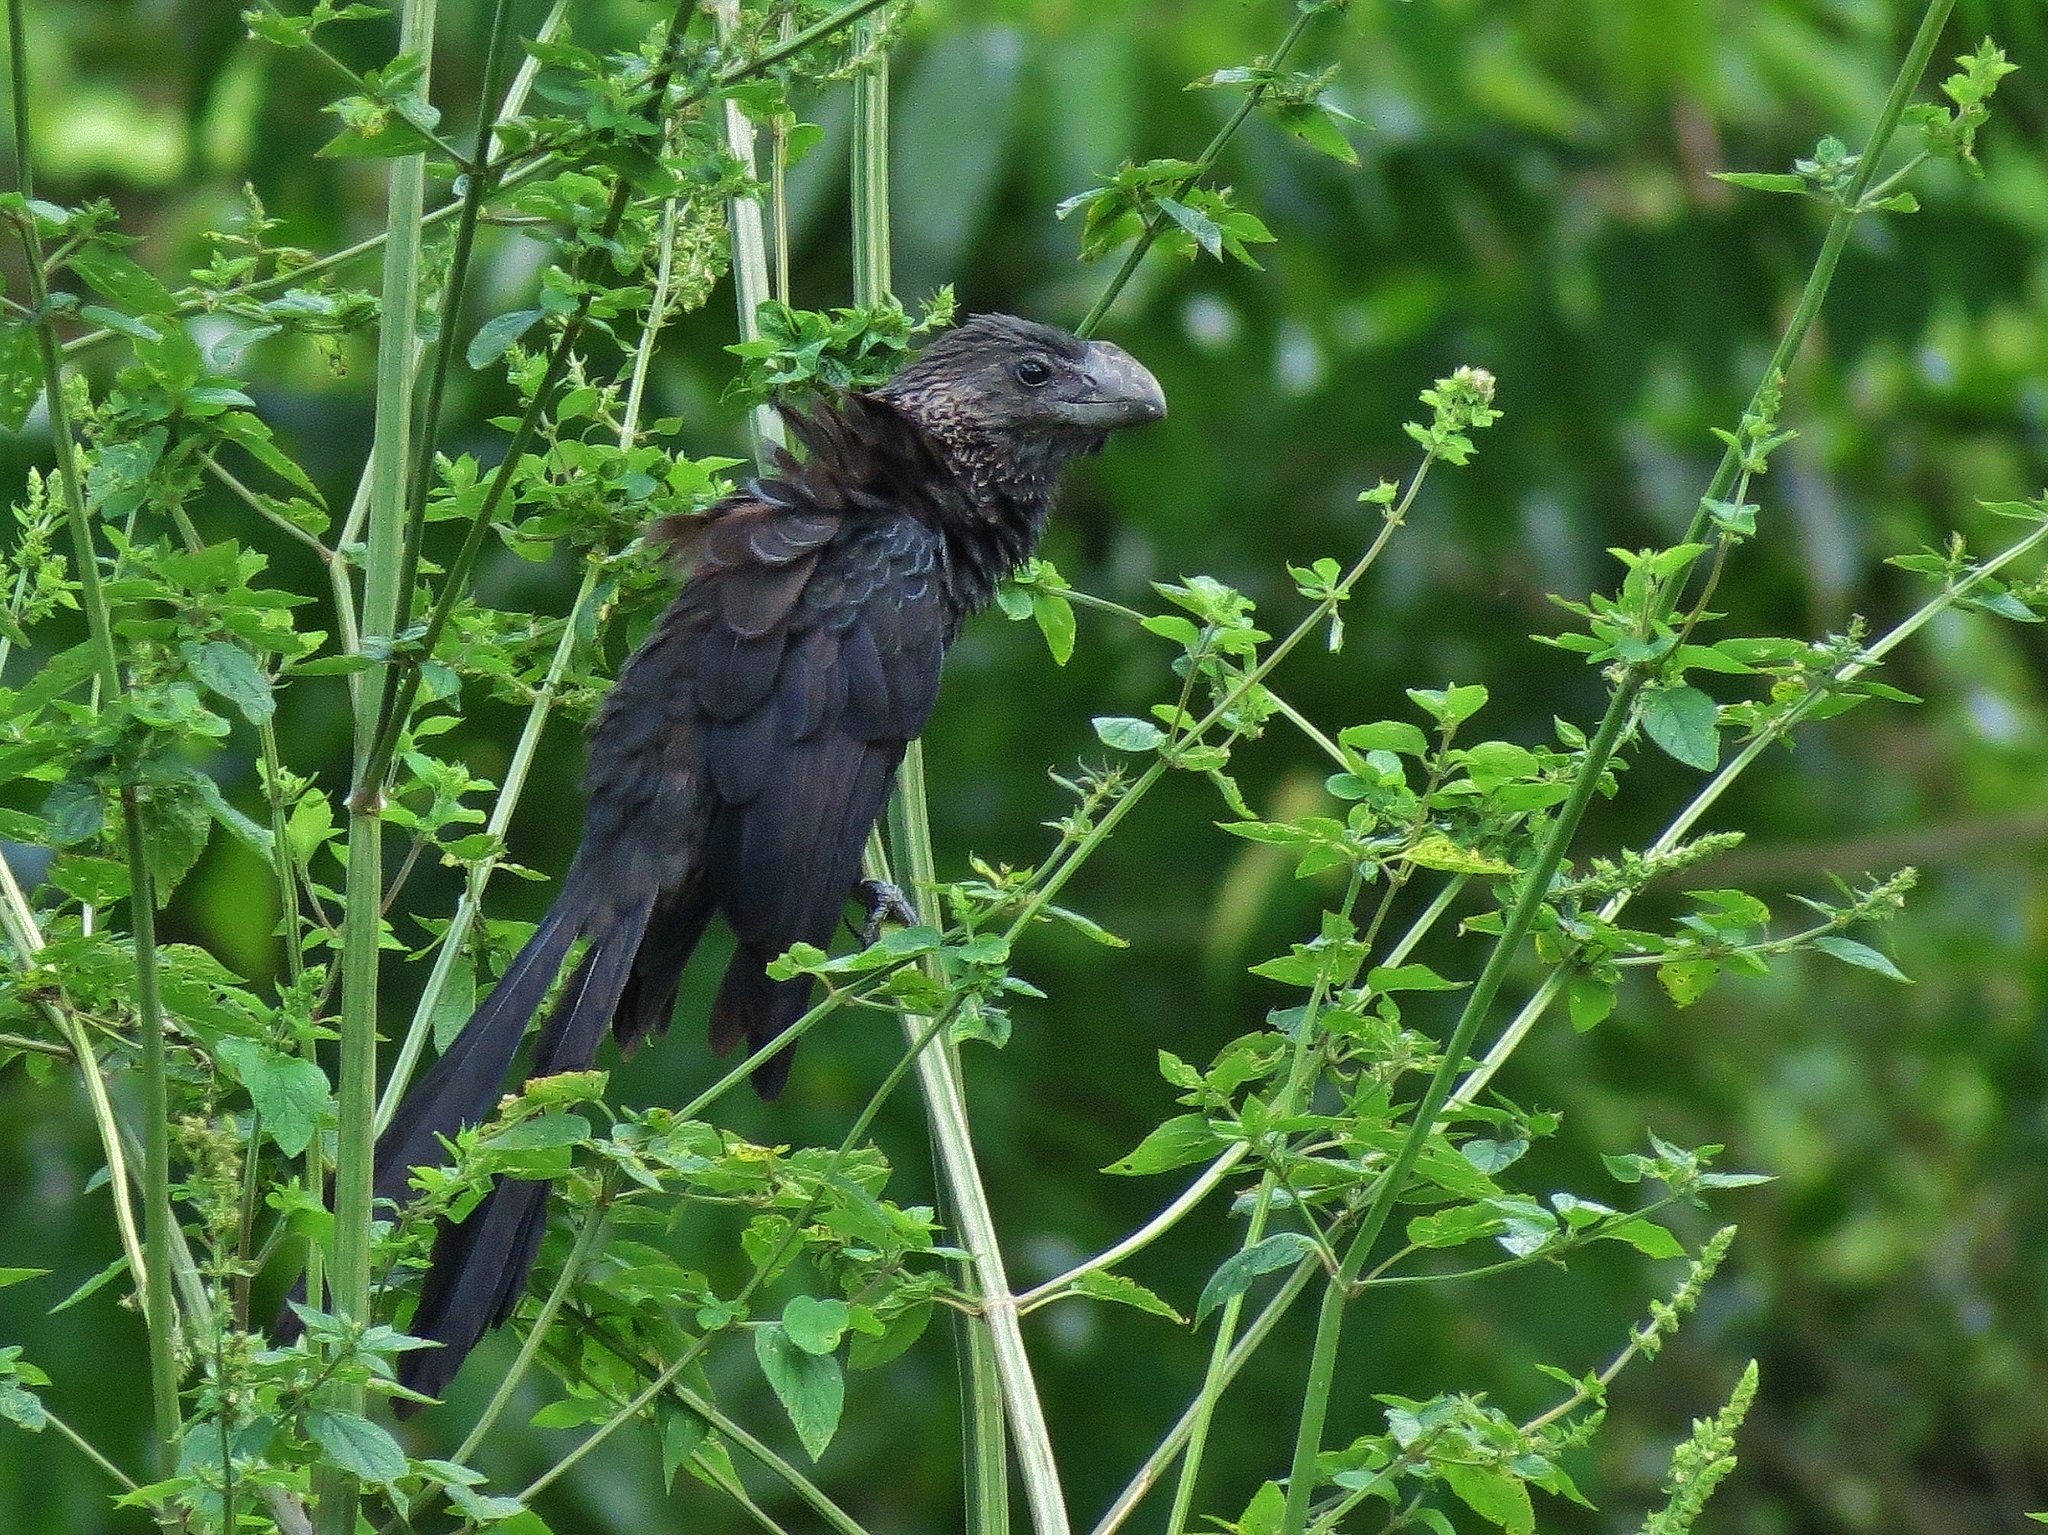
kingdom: Animalia
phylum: Chordata
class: Aves
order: Cuculiformes
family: Cuculidae
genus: Crotophaga
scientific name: Crotophaga ani
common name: Smooth-billed ani
